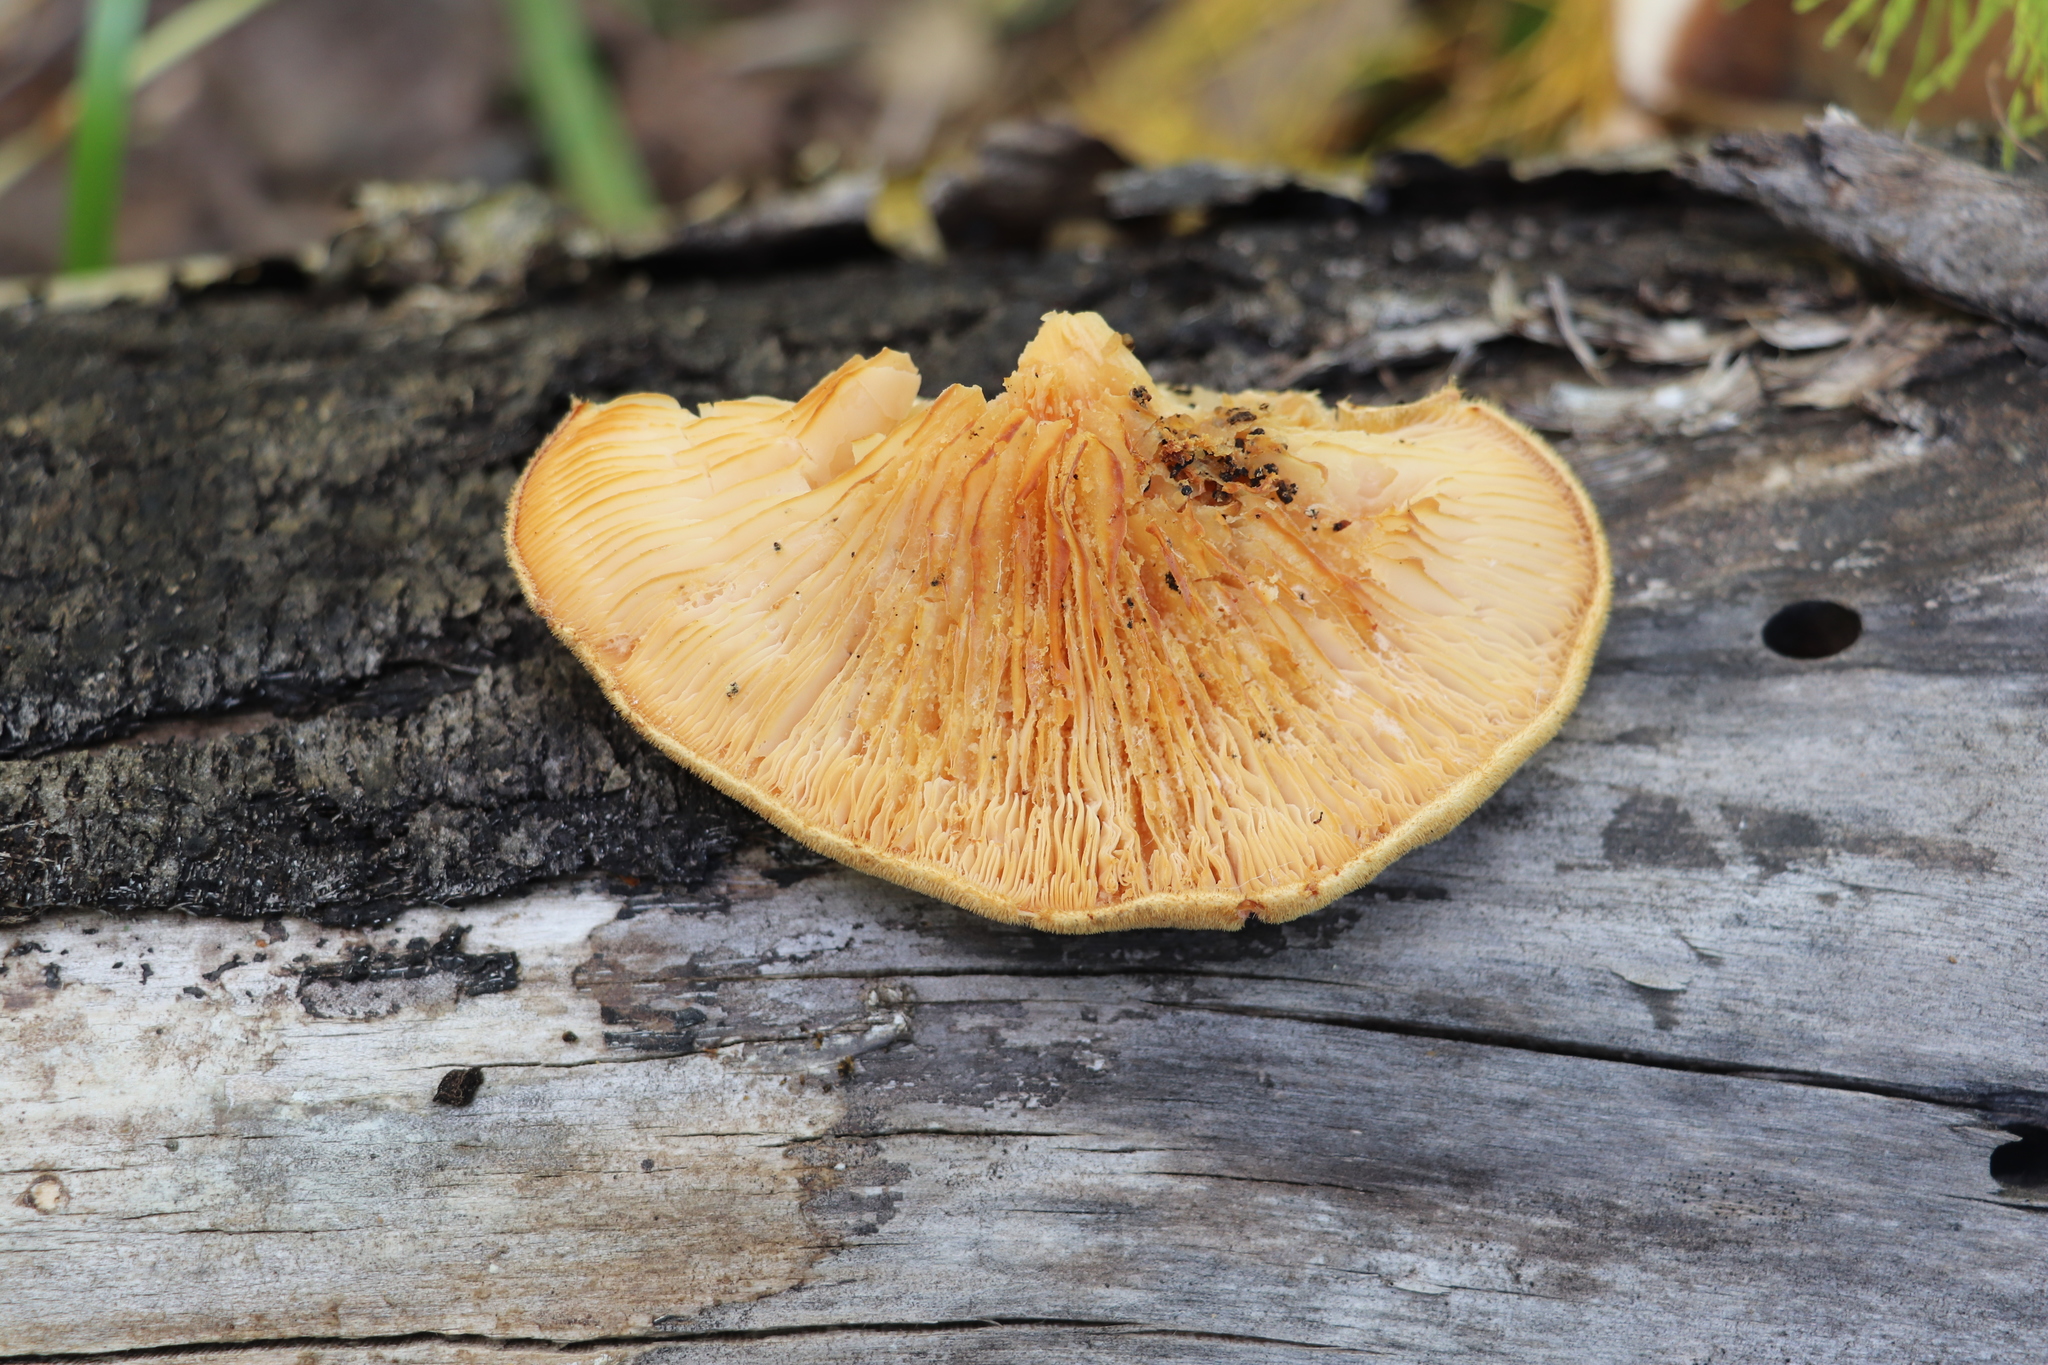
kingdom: Fungi
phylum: Basidiomycota
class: Agaricomycetes
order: Polyporales
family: Polyporaceae
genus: Lentinus
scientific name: Lentinus pilososquamulosus
